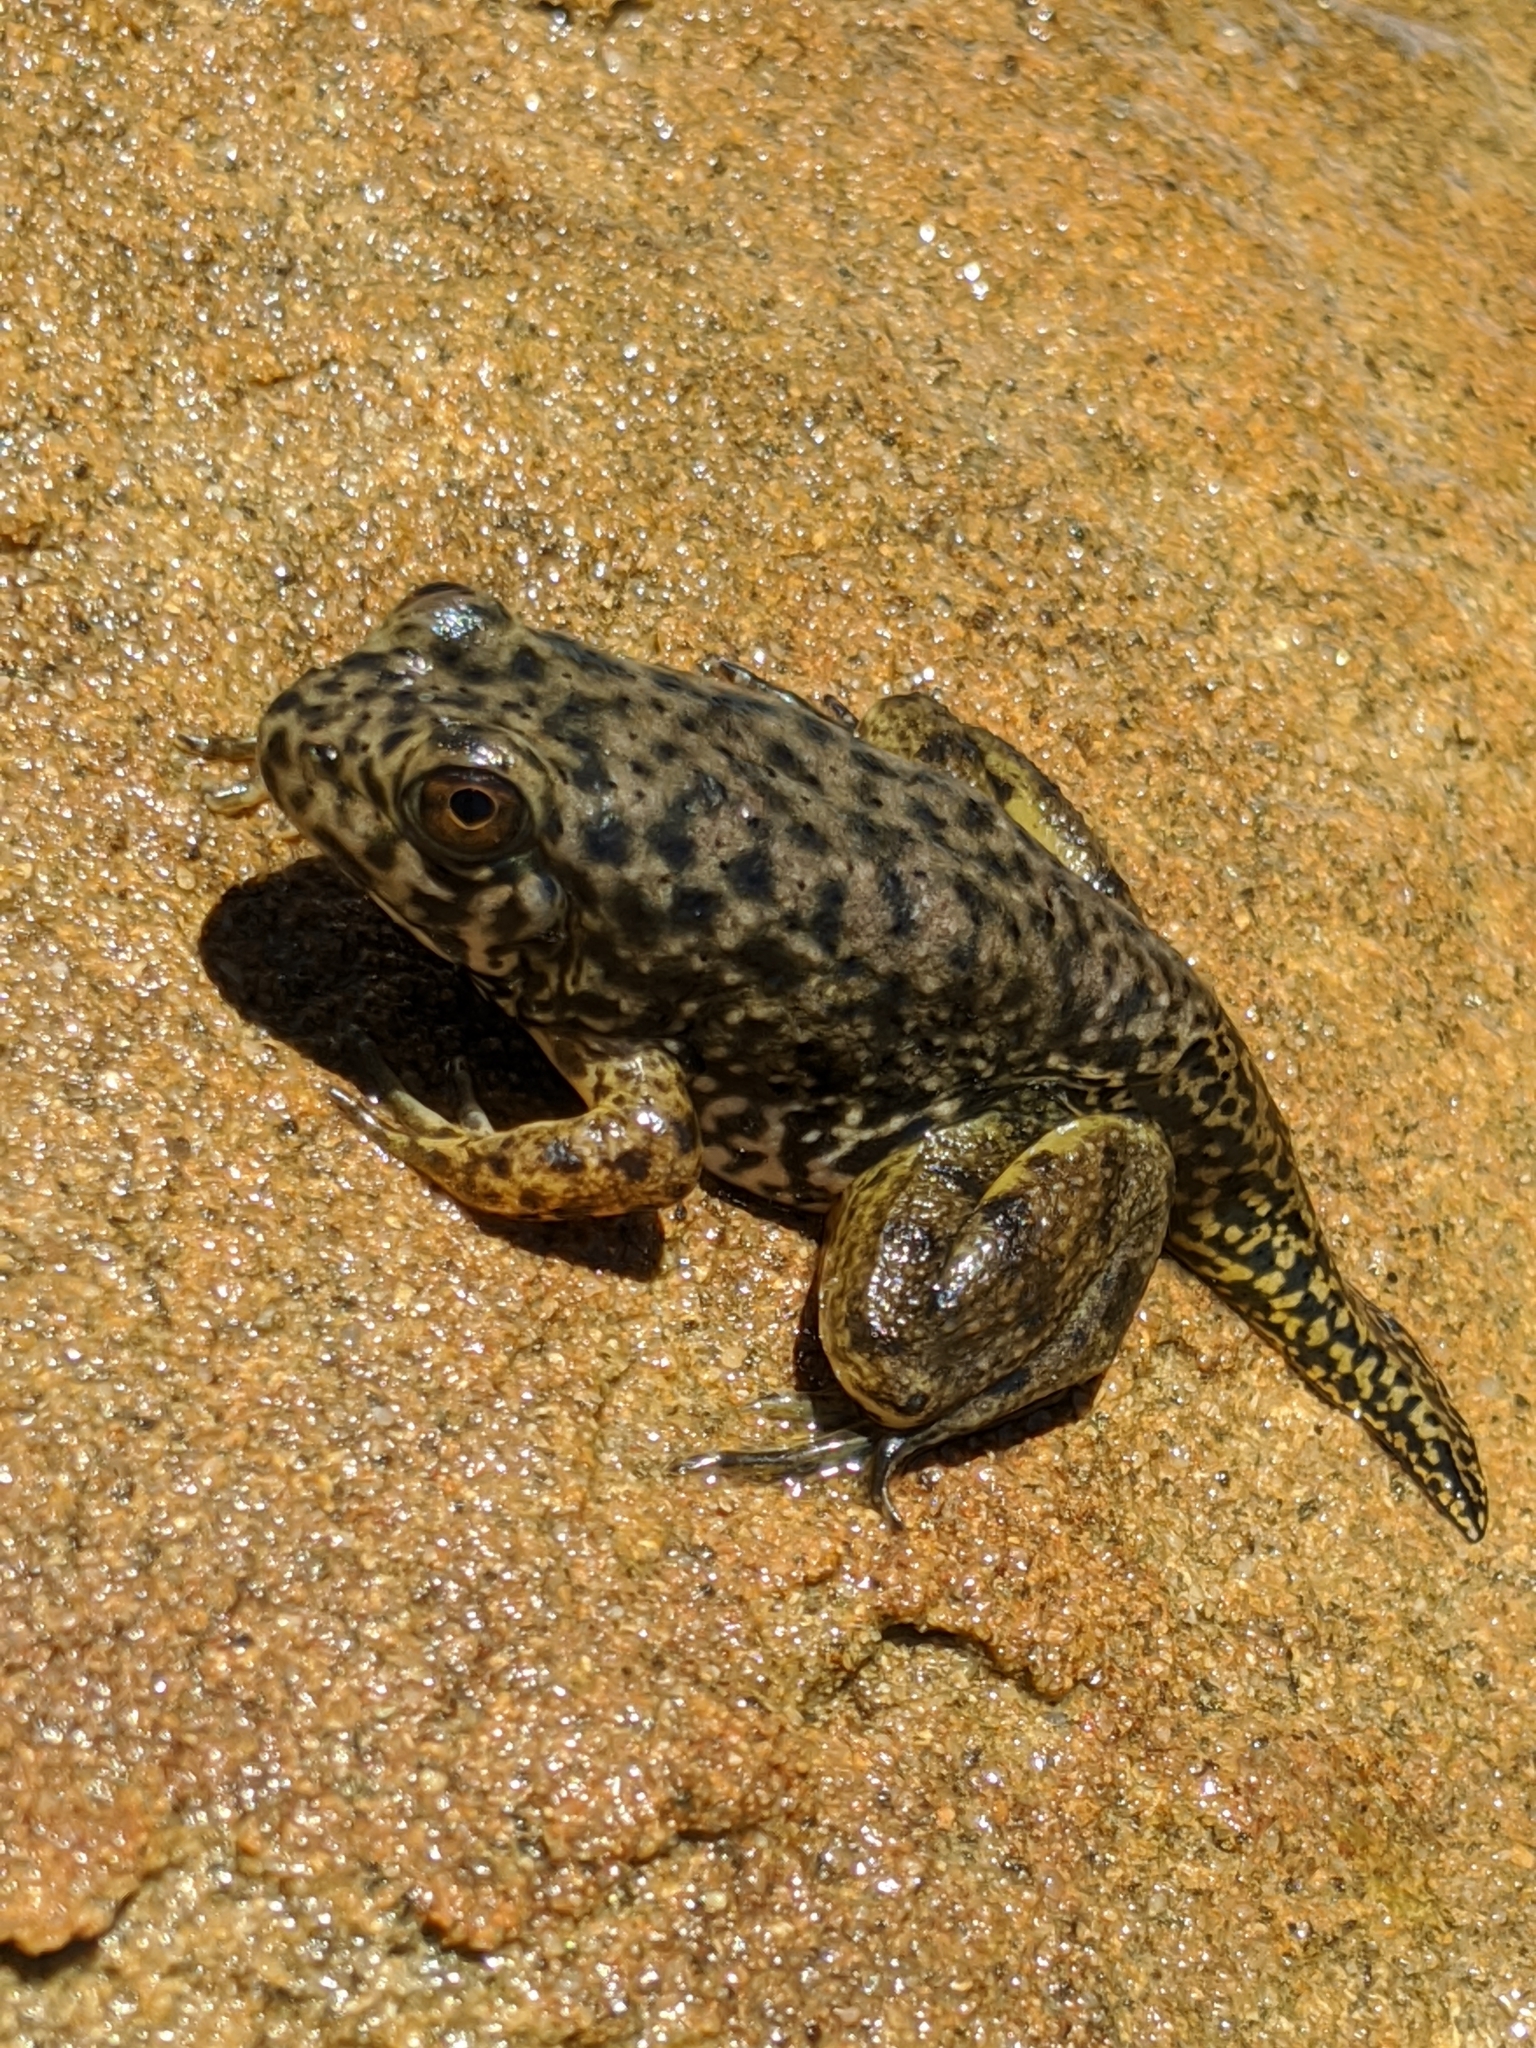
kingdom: Animalia
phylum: Chordata
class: Amphibia
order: Anura
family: Ranidae
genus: Lithobates
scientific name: Lithobates catesbeianus
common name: American bullfrog
